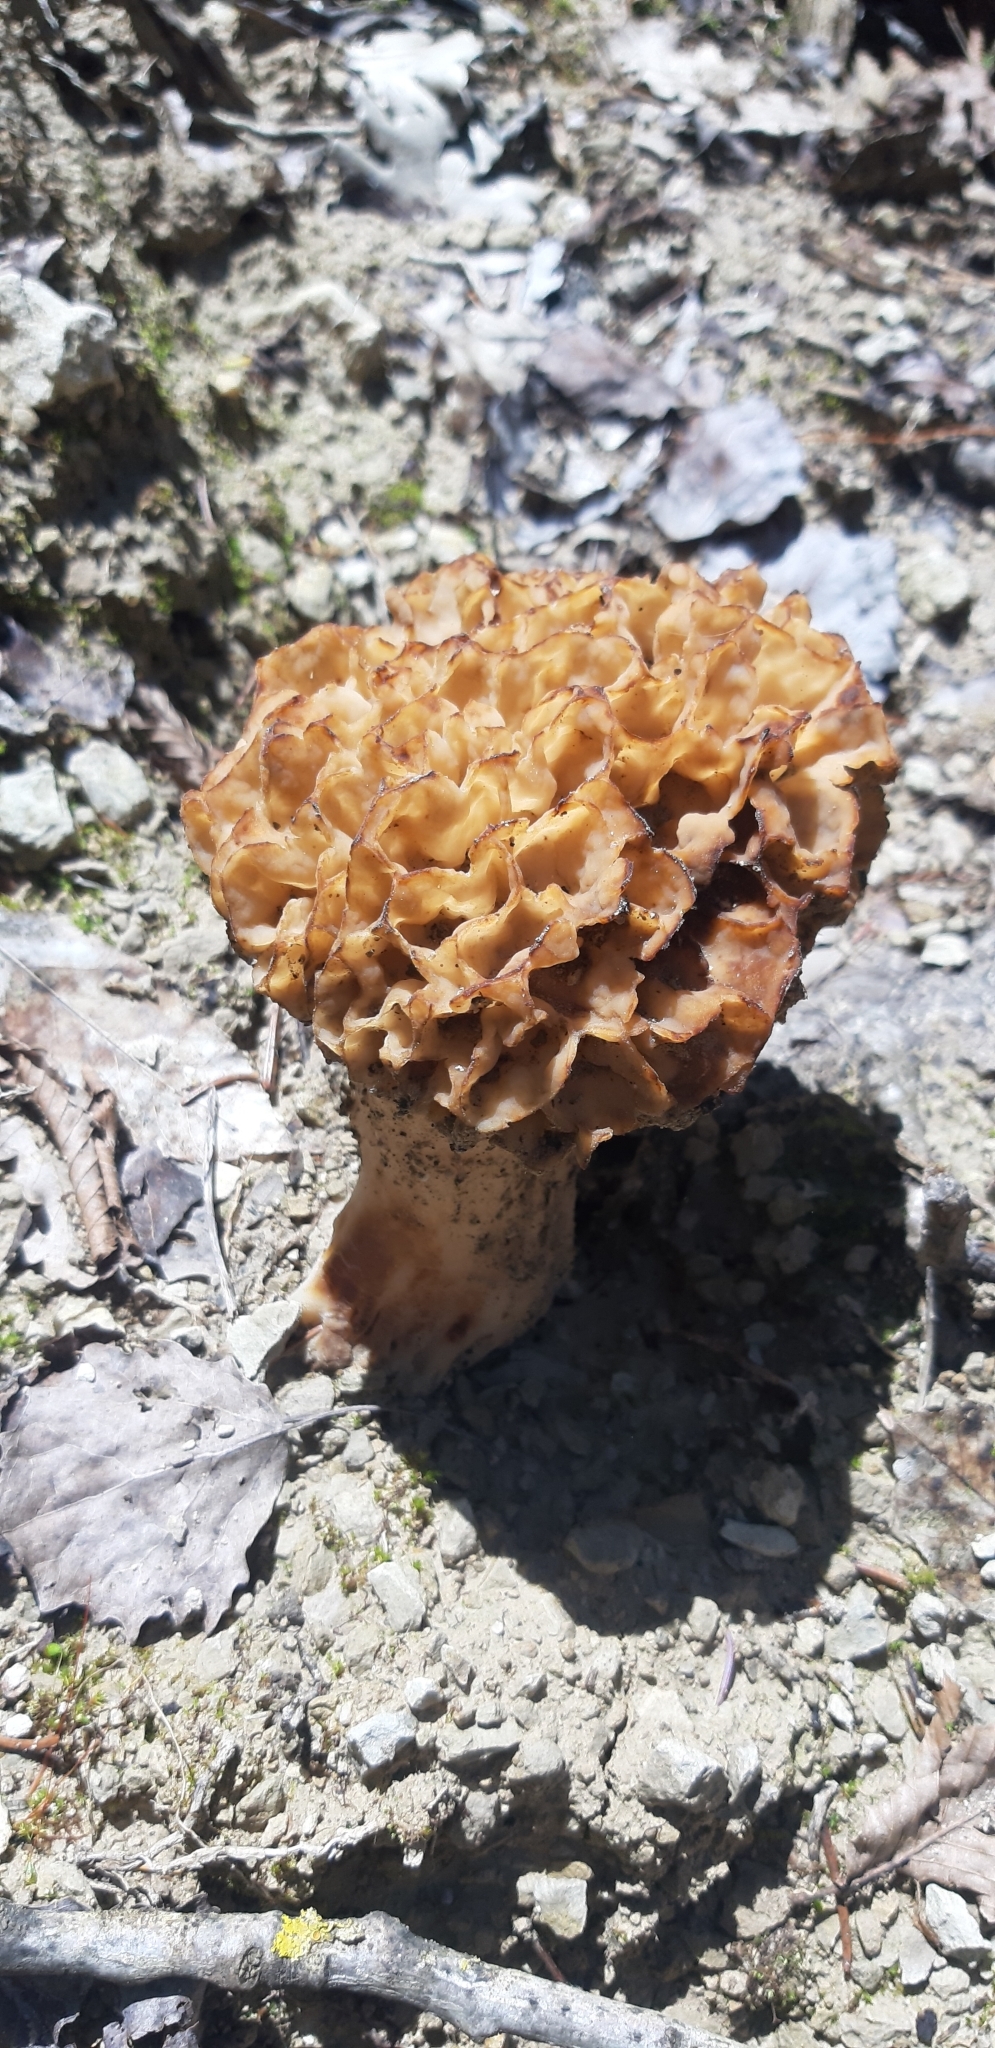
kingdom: Fungi
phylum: Ascomycota
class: Pezizomycetes
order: Pezizales
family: Morchellaceae
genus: Morchella
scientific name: Morchella esculenta
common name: Morel
